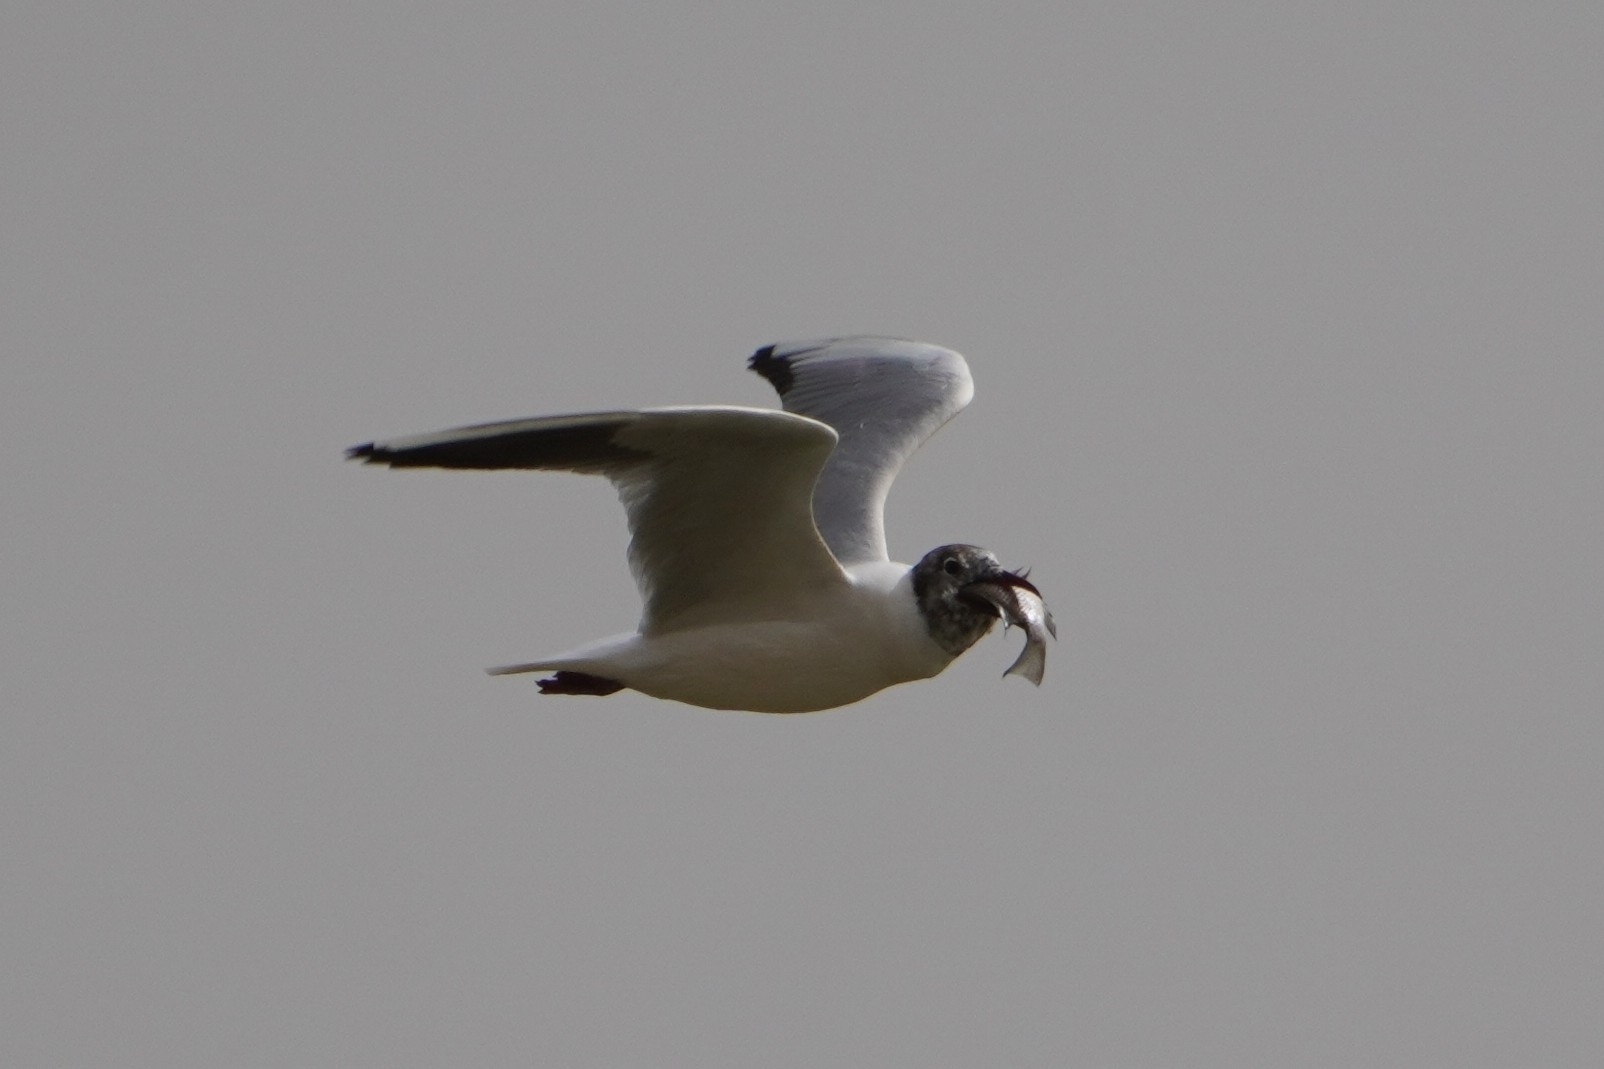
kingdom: Animalia
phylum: Chordata
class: Aves
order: Charadriiformes
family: Laridae
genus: Chroicocephalus
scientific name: Chroicocephalus ridibundus
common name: Black-headed gull
